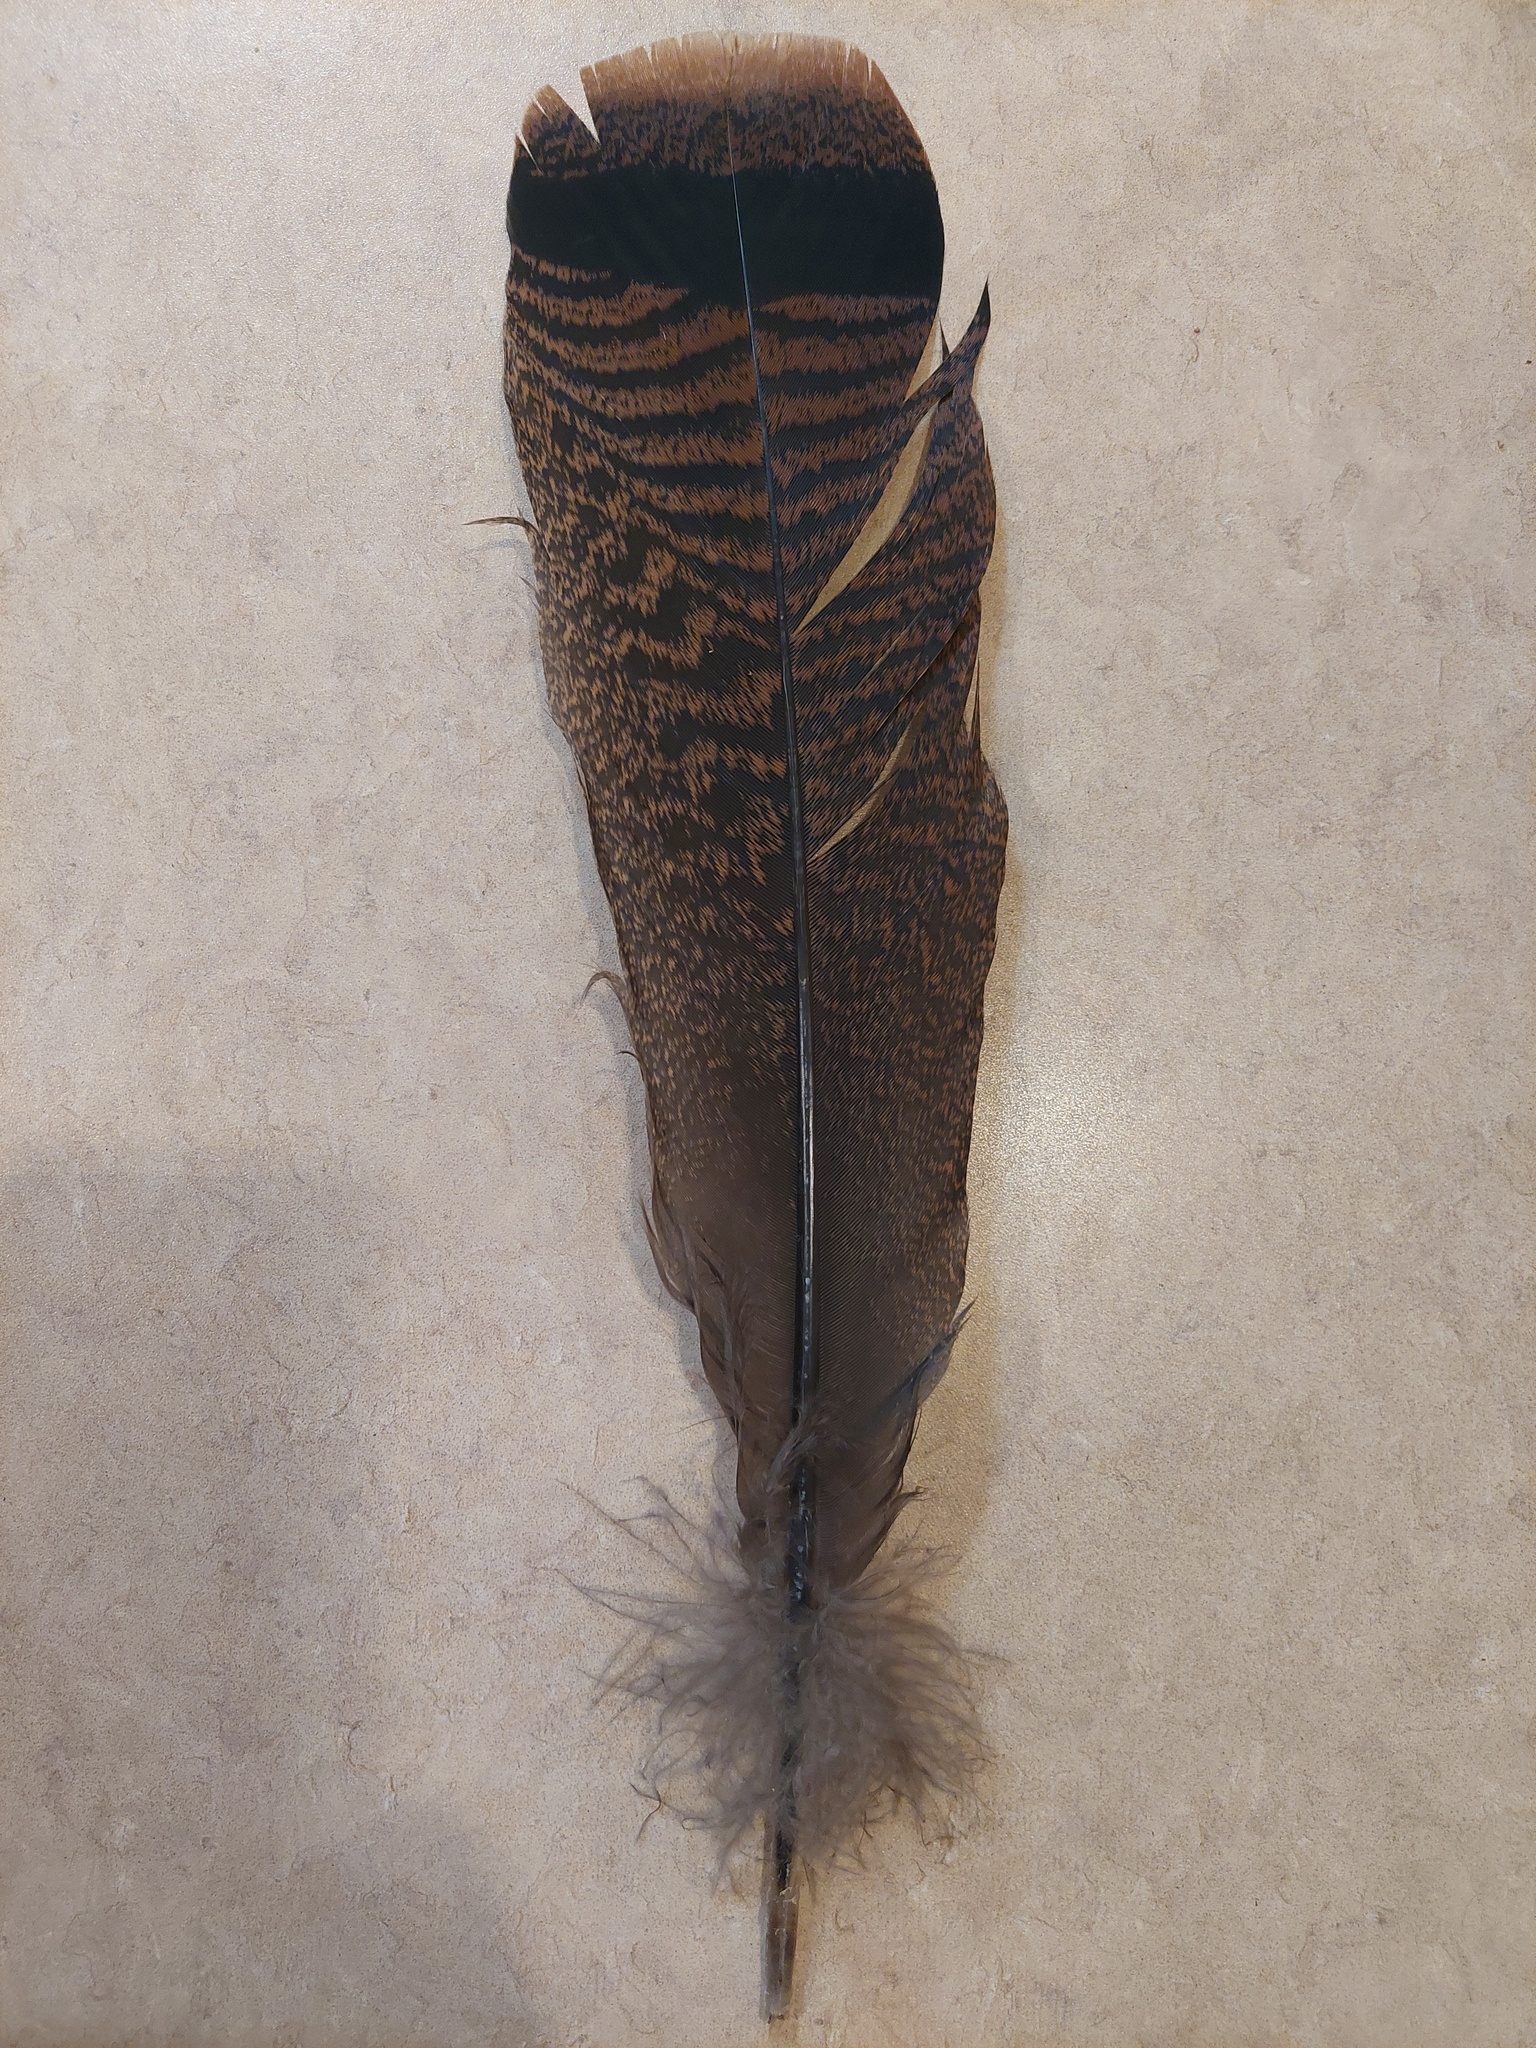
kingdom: Animalia
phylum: Chordata
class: Aves
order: Galliformes
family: Phasianidae
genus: Meleagris
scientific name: Meleagris gallopavo
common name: Wild turkey
